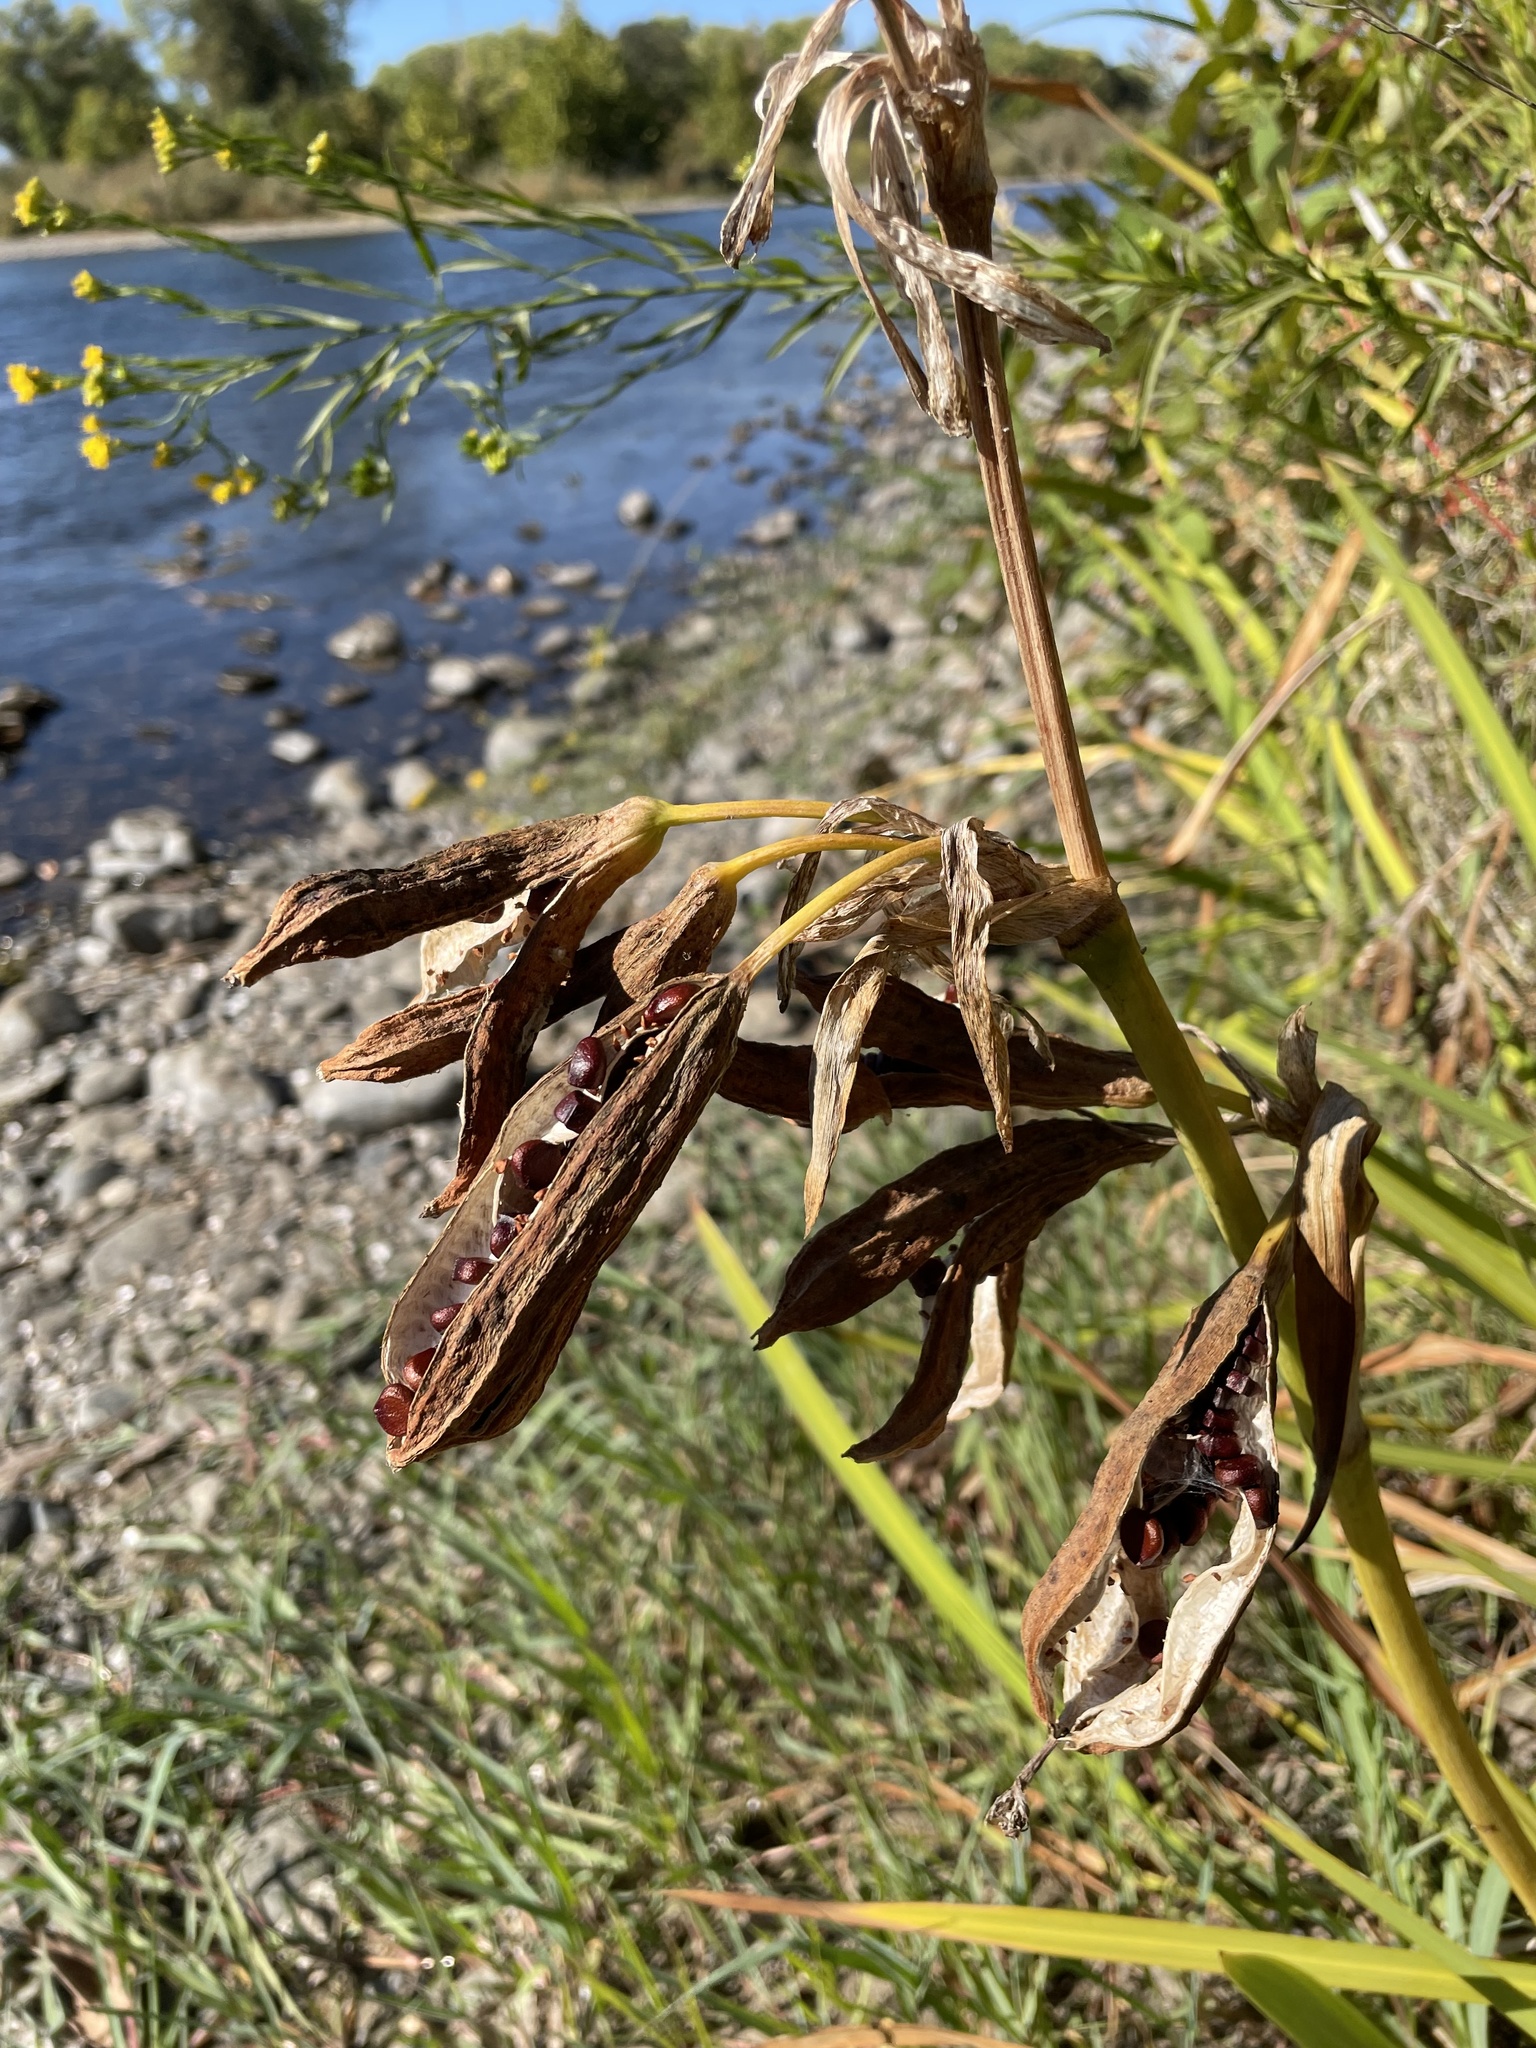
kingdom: Plantae
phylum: Tracheophyta
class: Liliopsida
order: Asparagales
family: Iridaceae
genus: Iris
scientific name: Iris pseudacorus
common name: Yellow flag
